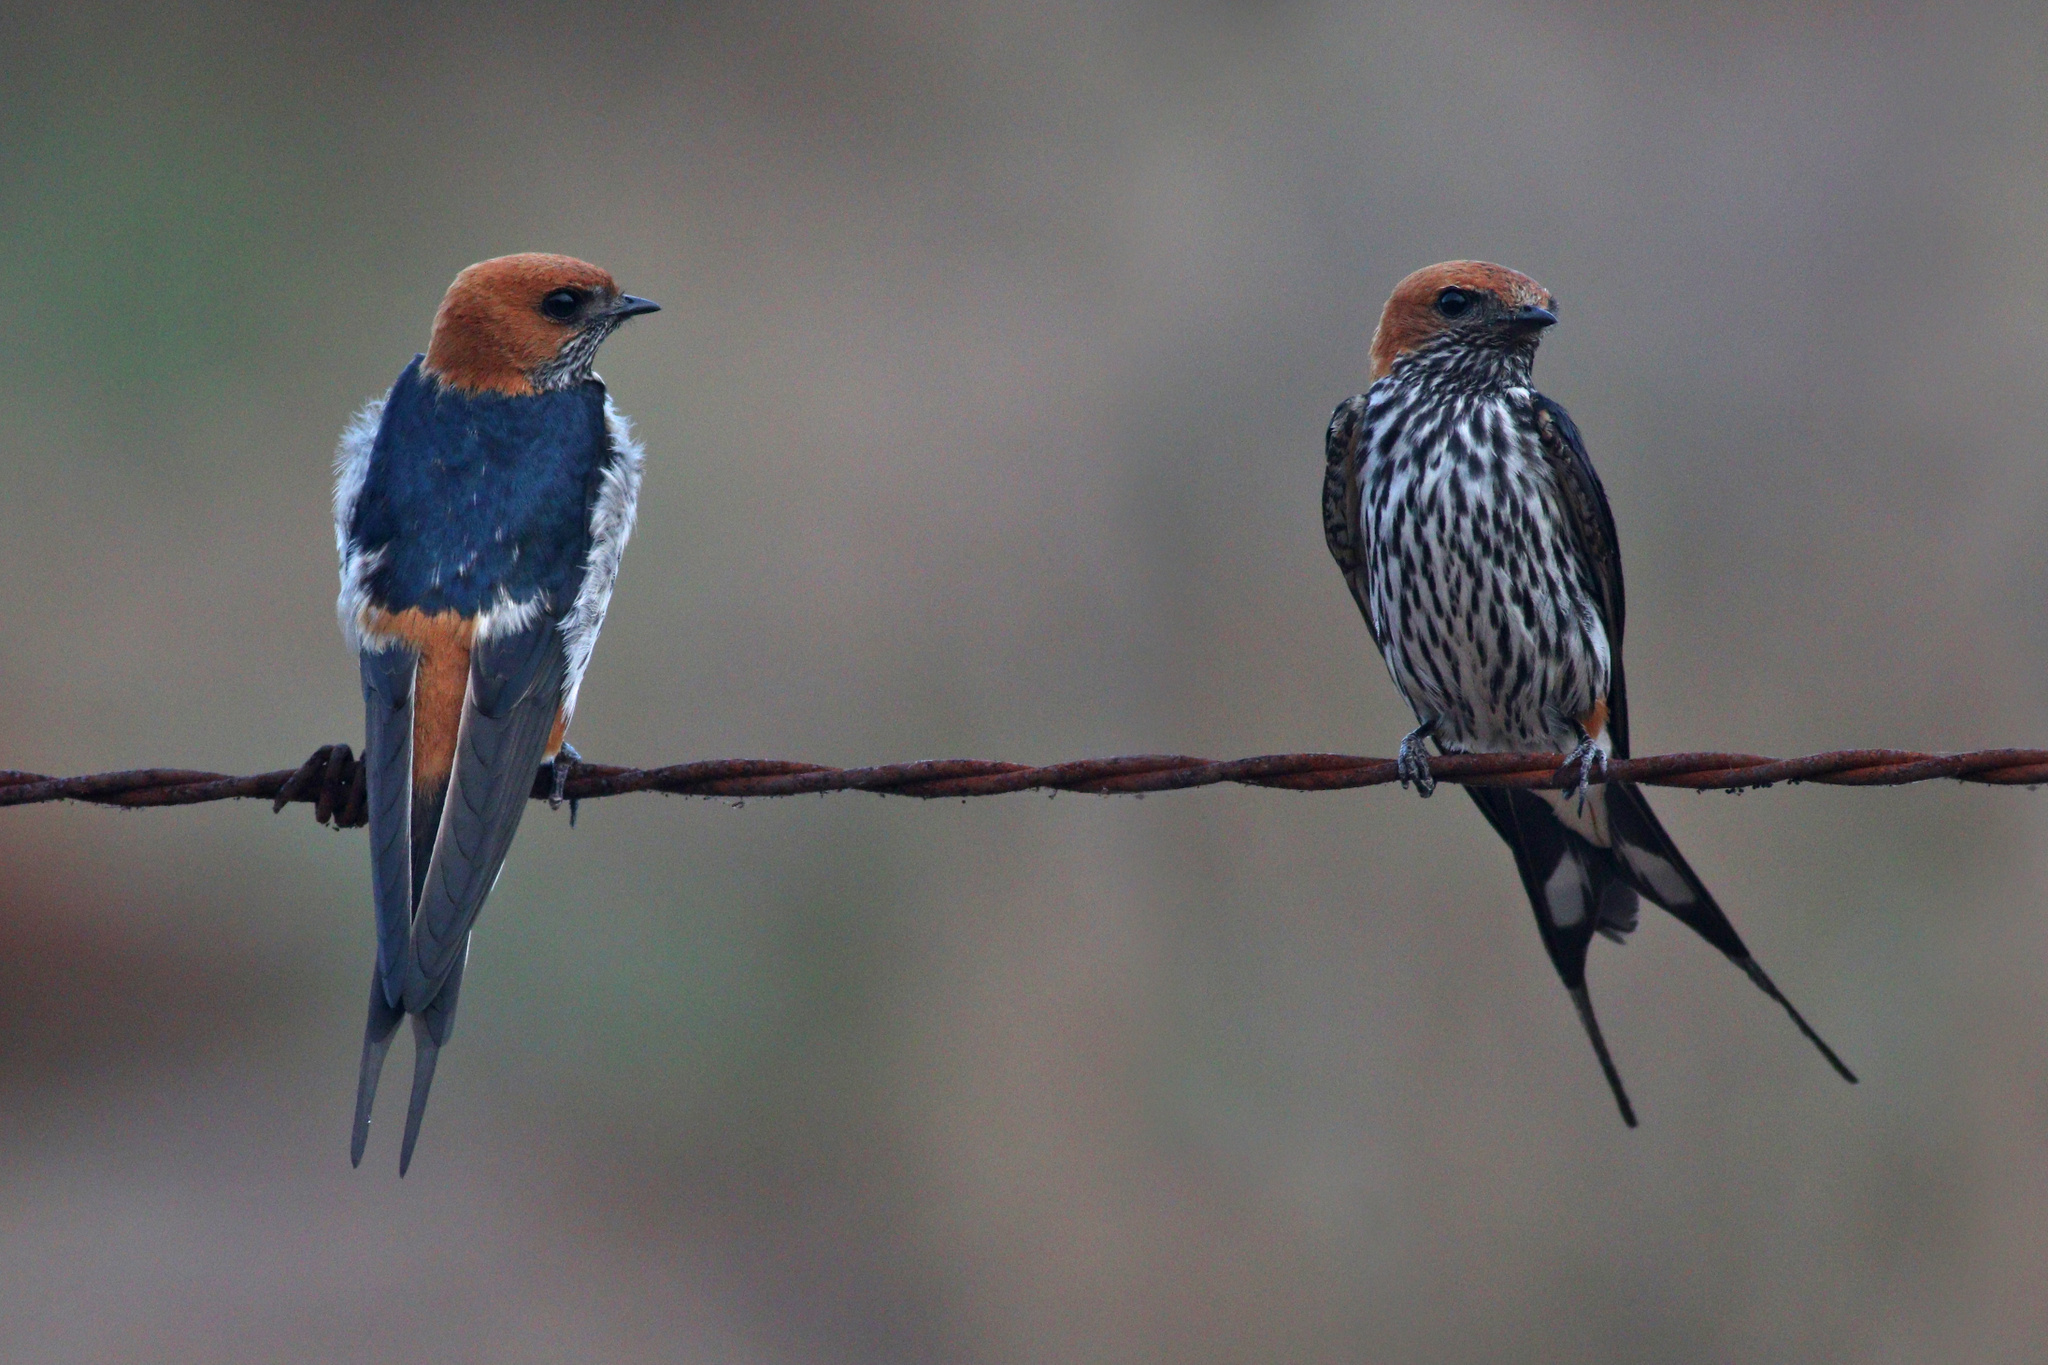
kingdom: Animalia
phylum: Chordata
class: Aves
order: Passeriformes
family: Hirundinidae
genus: Cecropis
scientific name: Cecropis abyssinica
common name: Lesser striped-swallow
